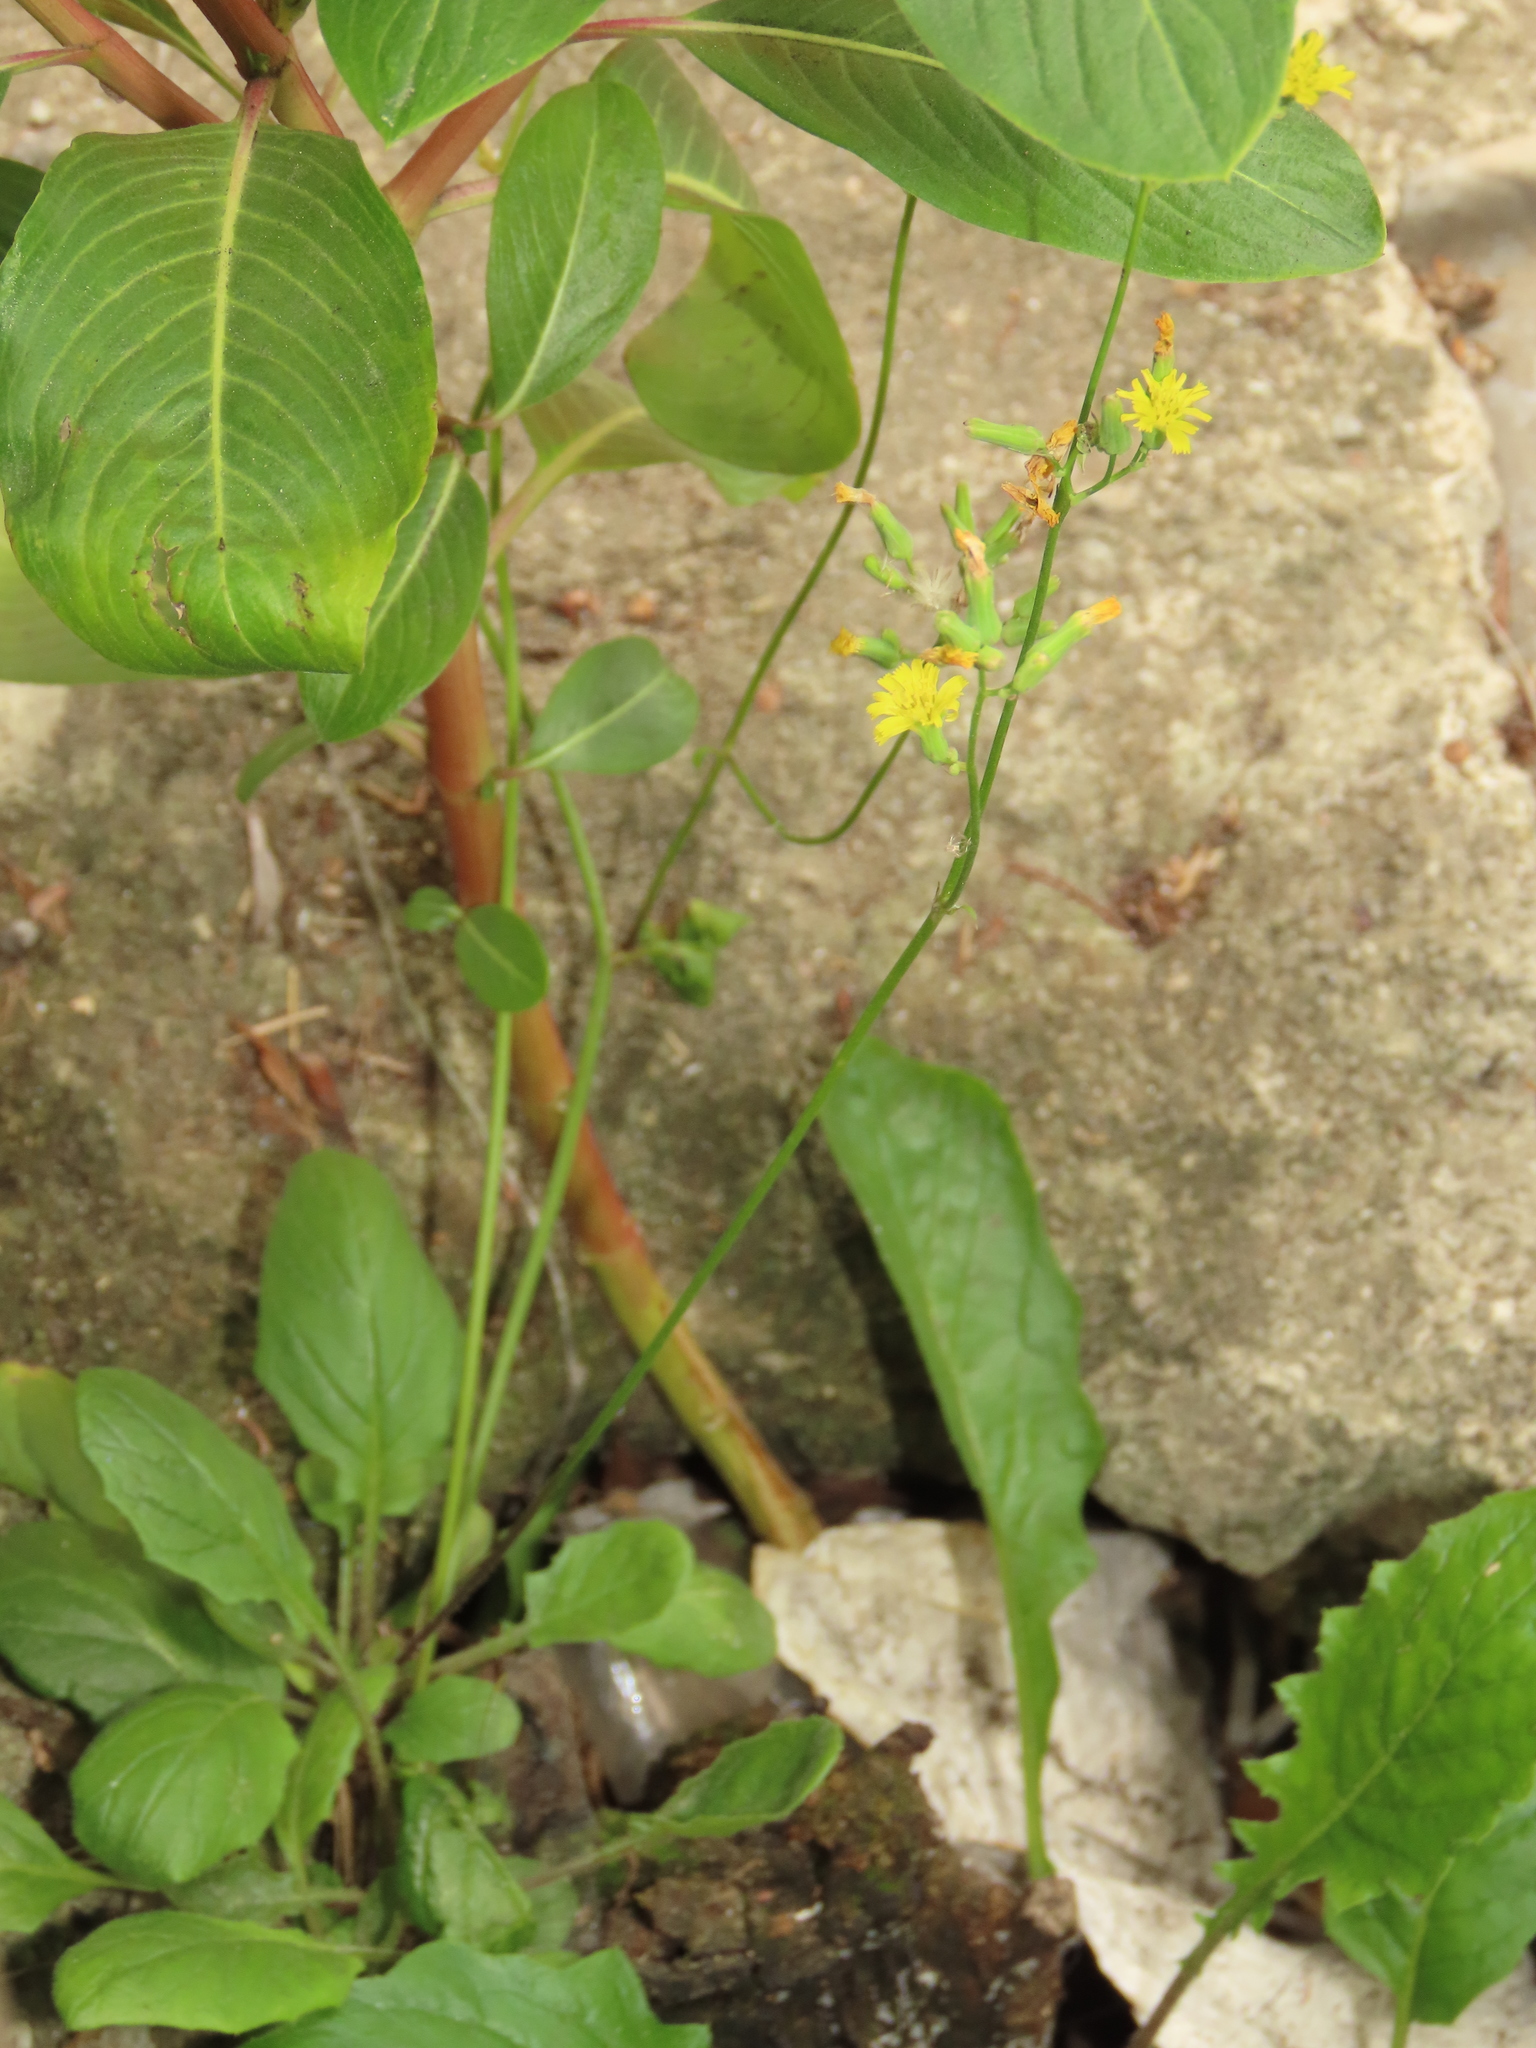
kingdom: Plantae
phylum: Tracheophyta
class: Magnoliopsida
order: Asterales
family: Asteraceae
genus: Youngia
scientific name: Youngia japonica
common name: Oriental false hawksbeard
